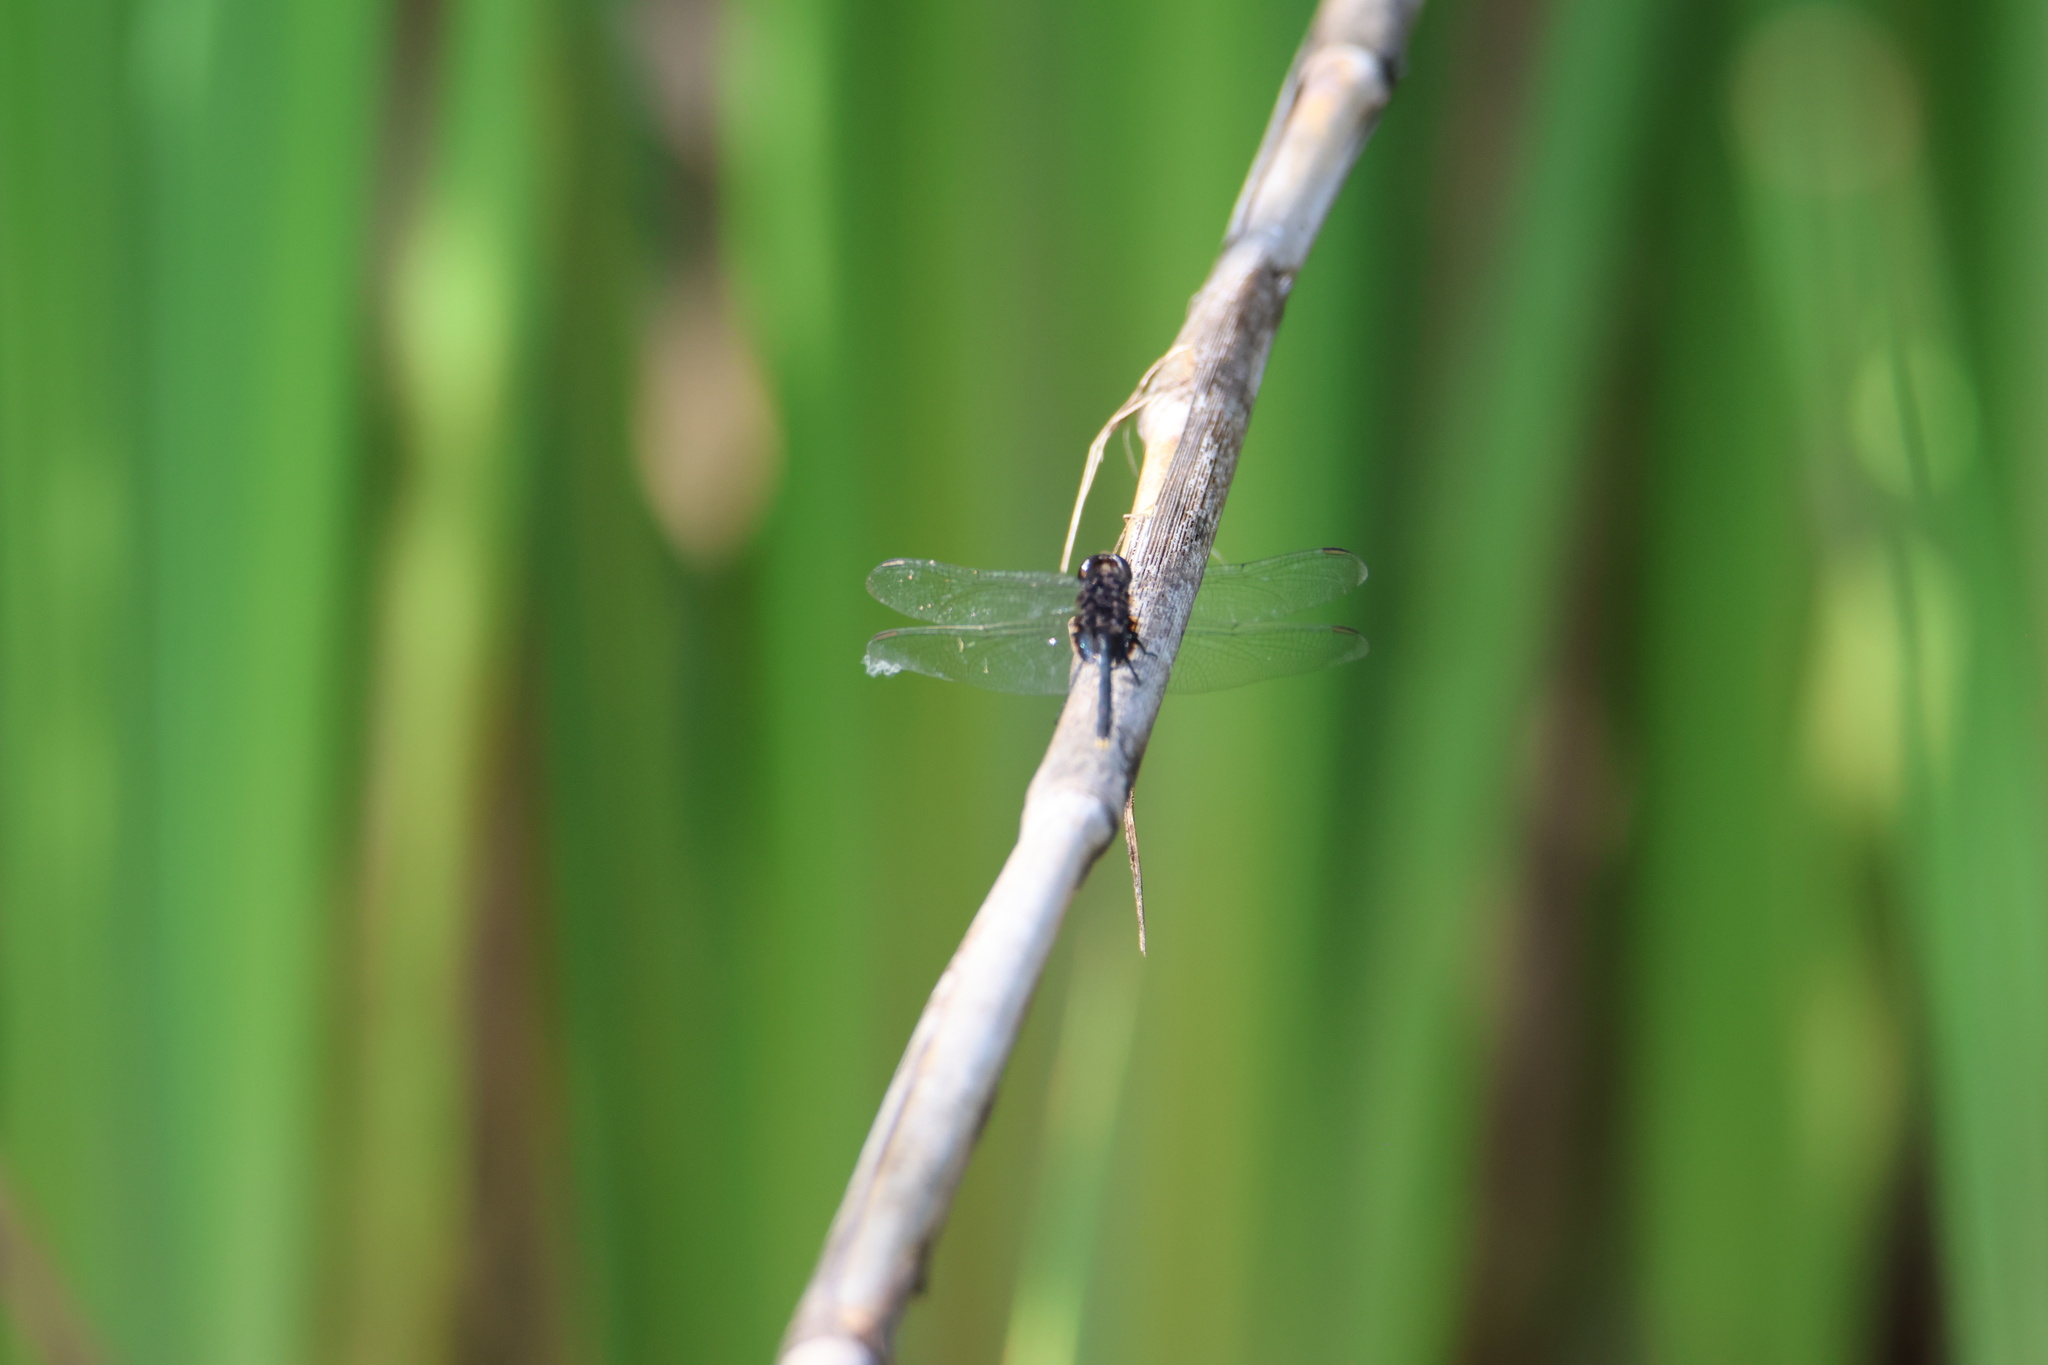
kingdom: Animalia
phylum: Arthropoda
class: Insecta
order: Odonata
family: Libellulidae
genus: Erythemis
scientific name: Erythemis plebeja
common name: Pin-tailed pondhawk
